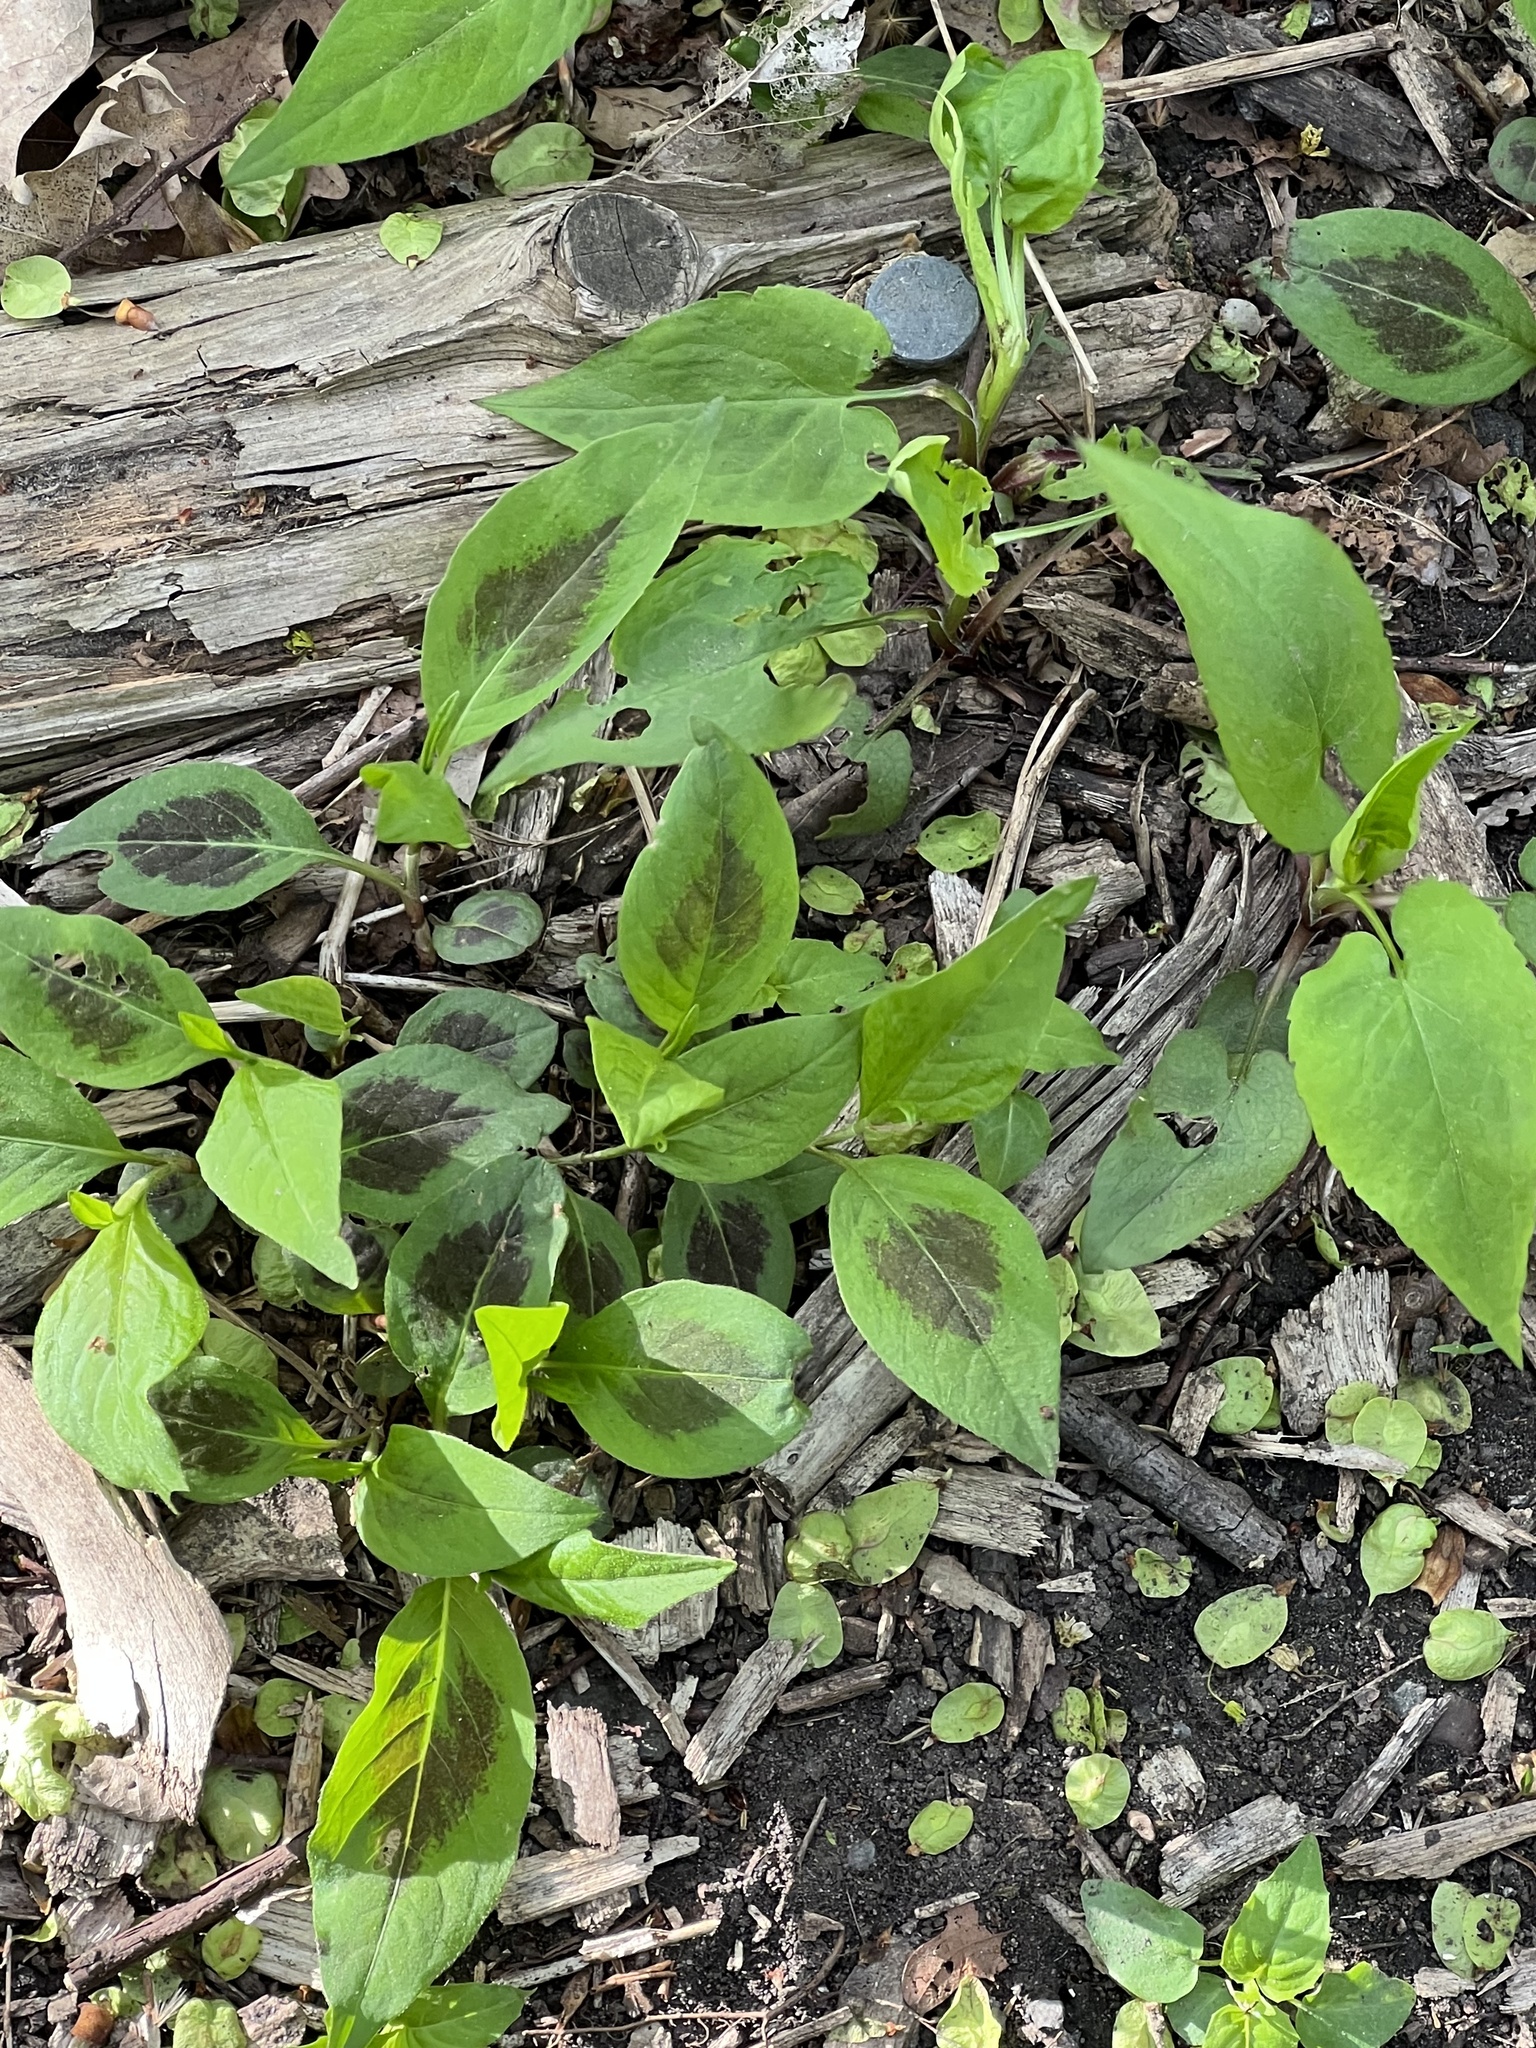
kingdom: Plantae
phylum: Tracheophyta
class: Magnoliopsida
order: Caryophyllales
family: Polygonaceae
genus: Persicaria
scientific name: Persicaria virginiana
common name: Jumpseed
